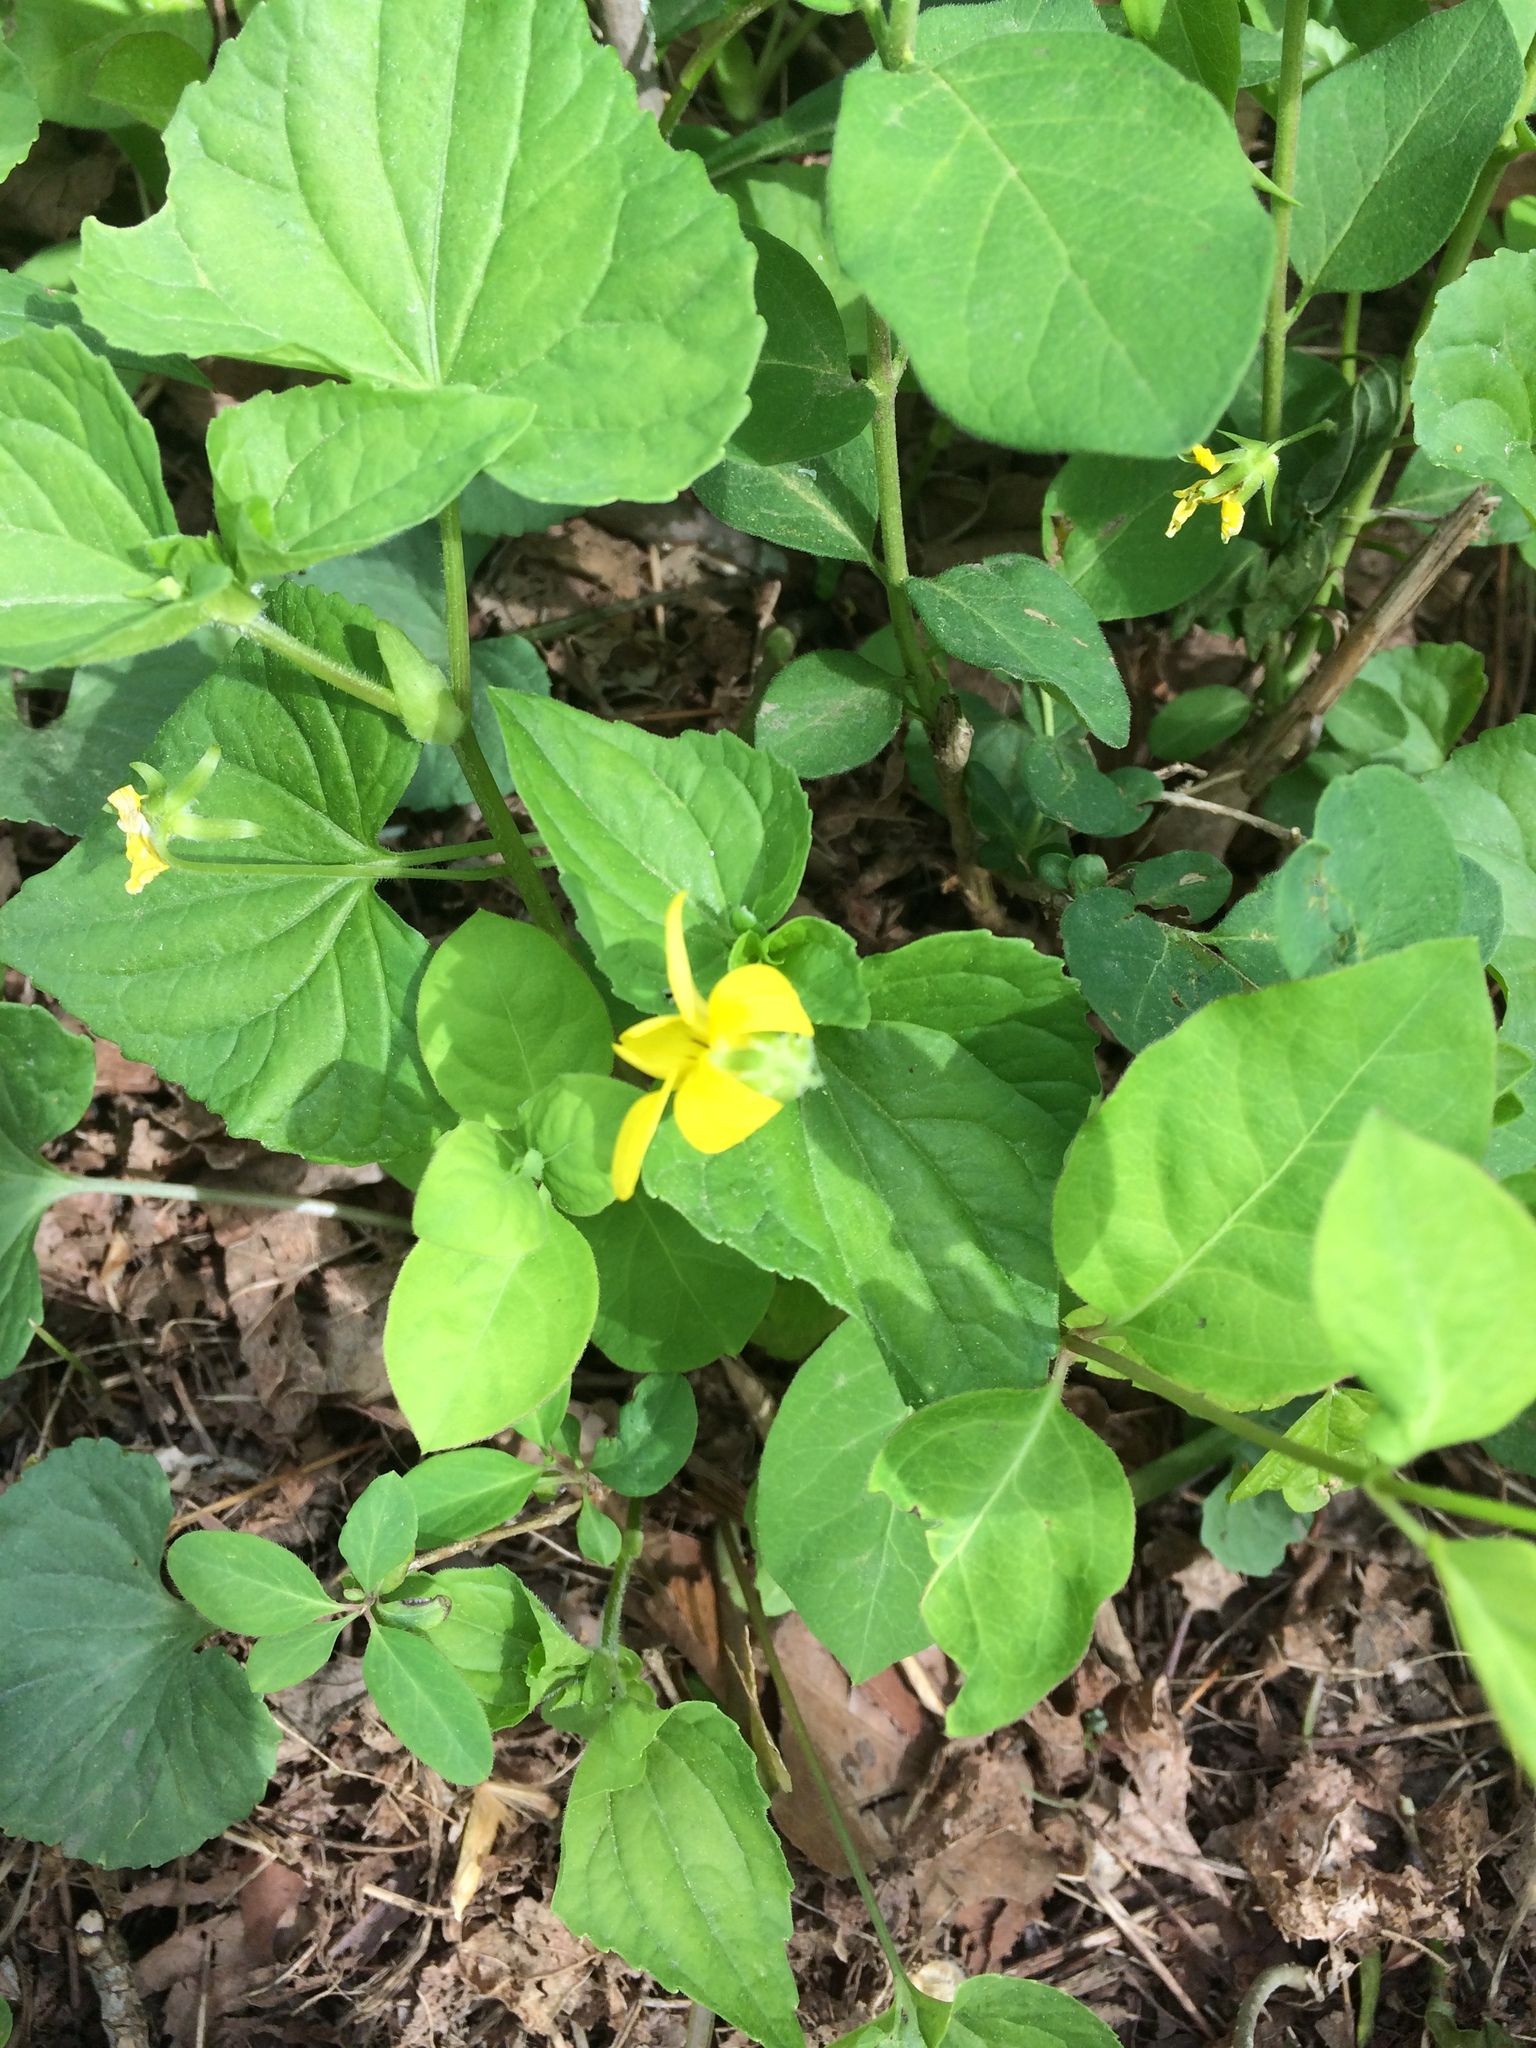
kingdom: Plantae
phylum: Tracheophyta
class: Magnoliopsida
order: Malpighiales
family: Violaceae
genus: Viola
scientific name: Viola eriocarpa
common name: Smooth yellow violet
